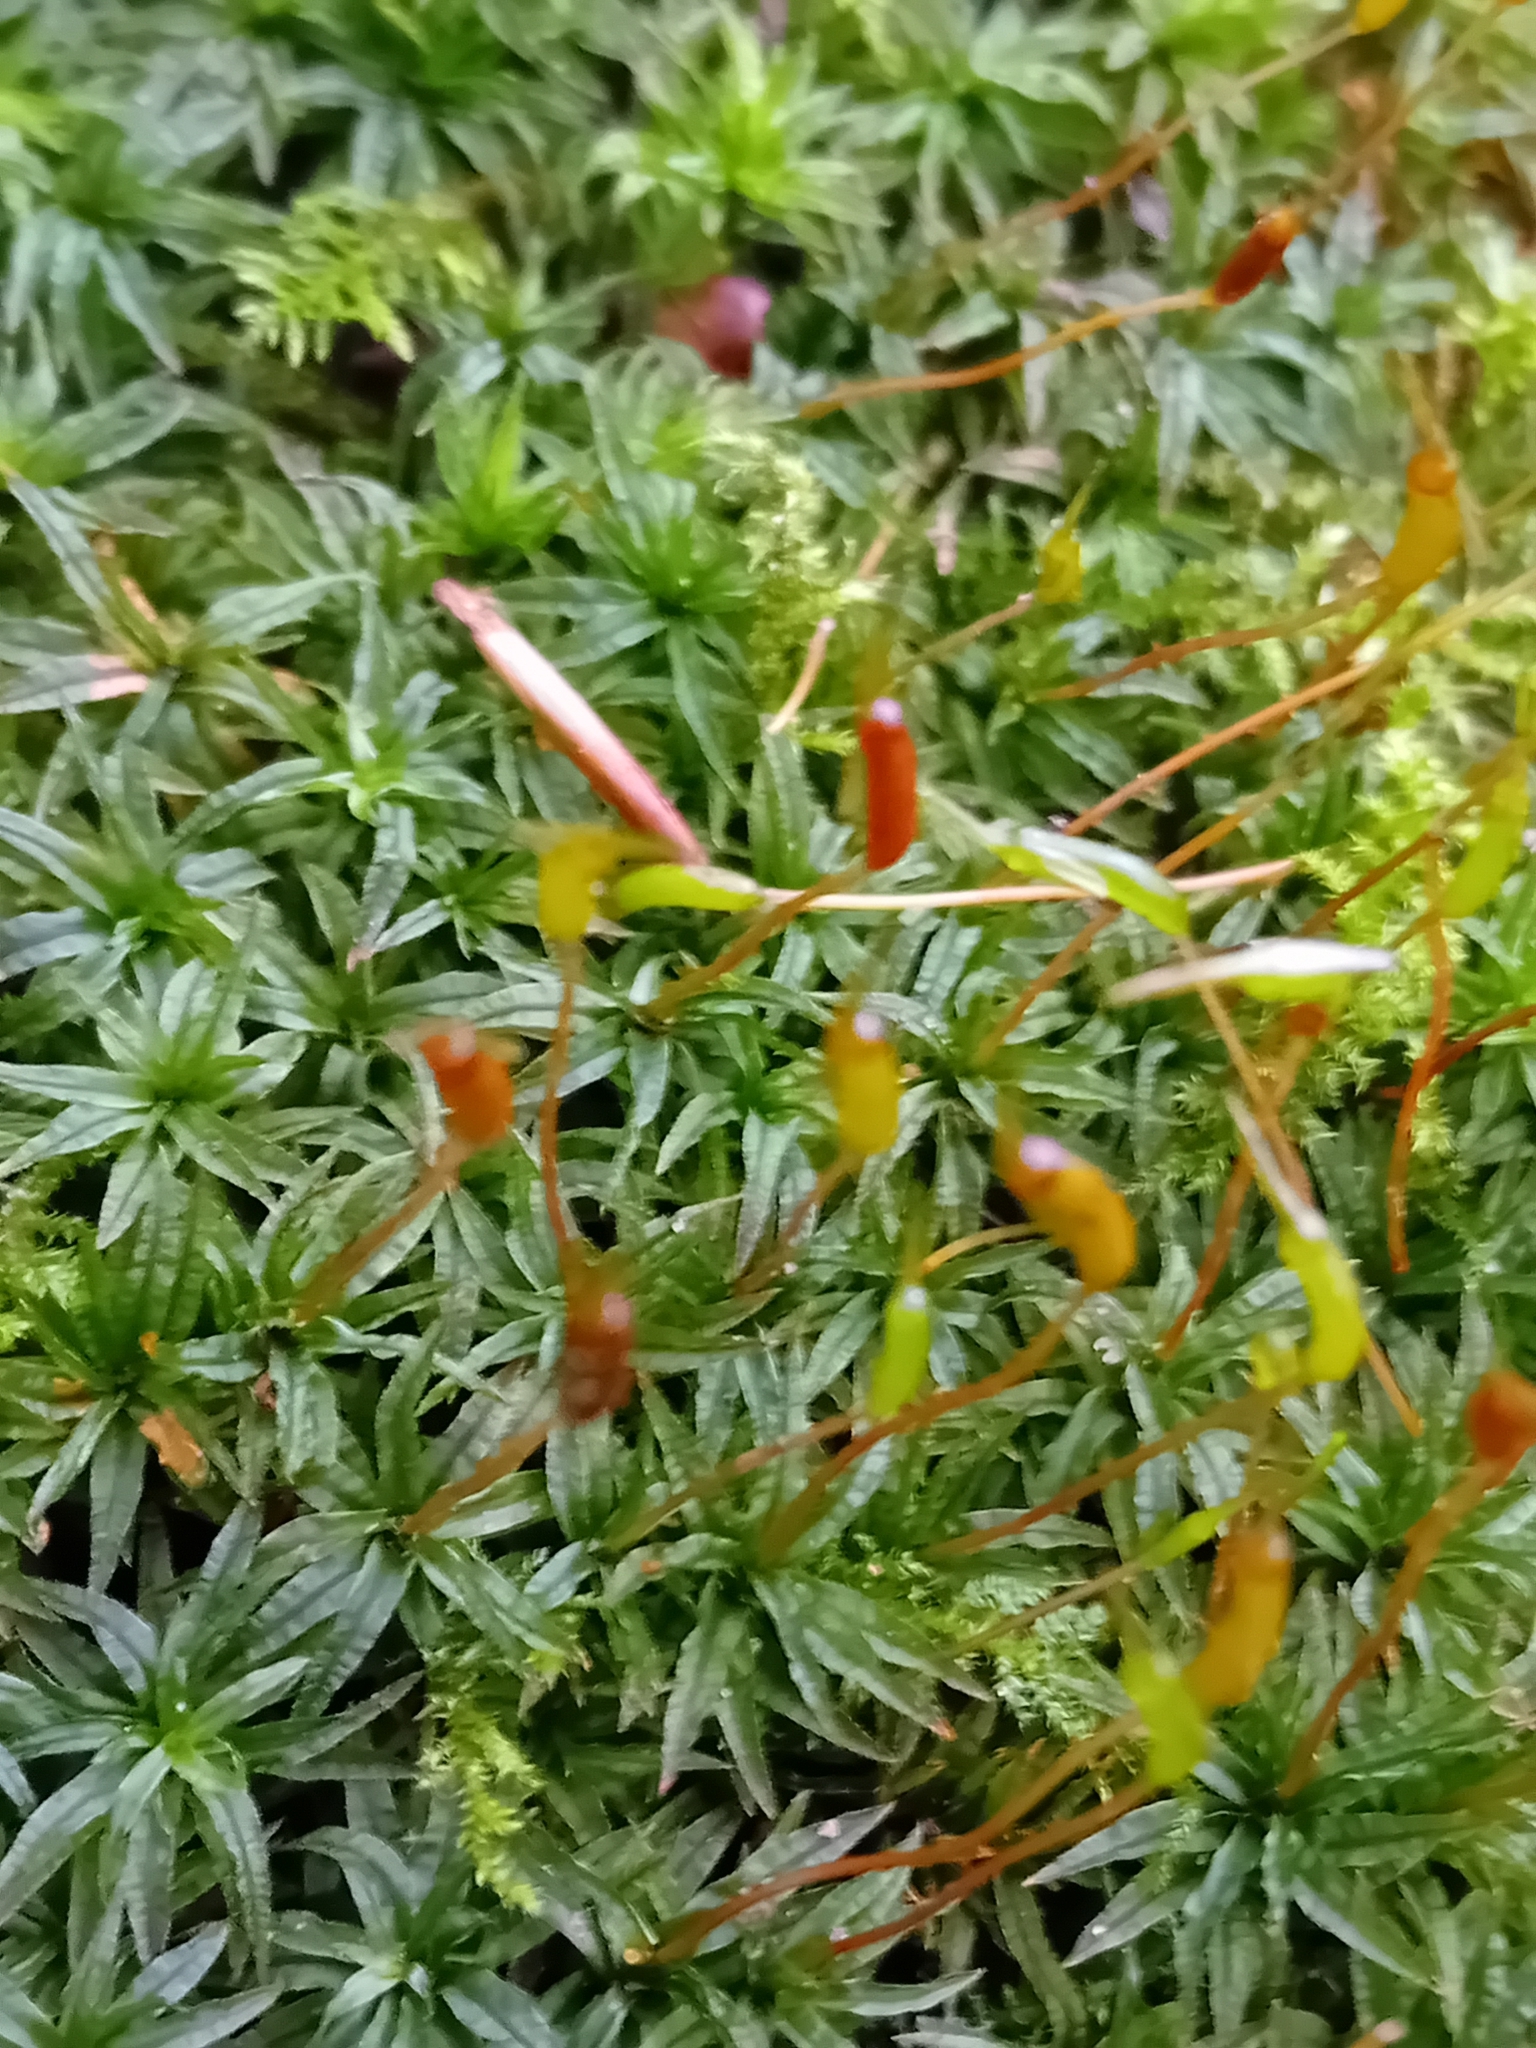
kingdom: Plantae
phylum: Bryophyta
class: Polytrichopsida
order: Polytrichales
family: Polytrichaceae
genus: Atrichum
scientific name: Atrichum undulatum
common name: Common smoothcap
